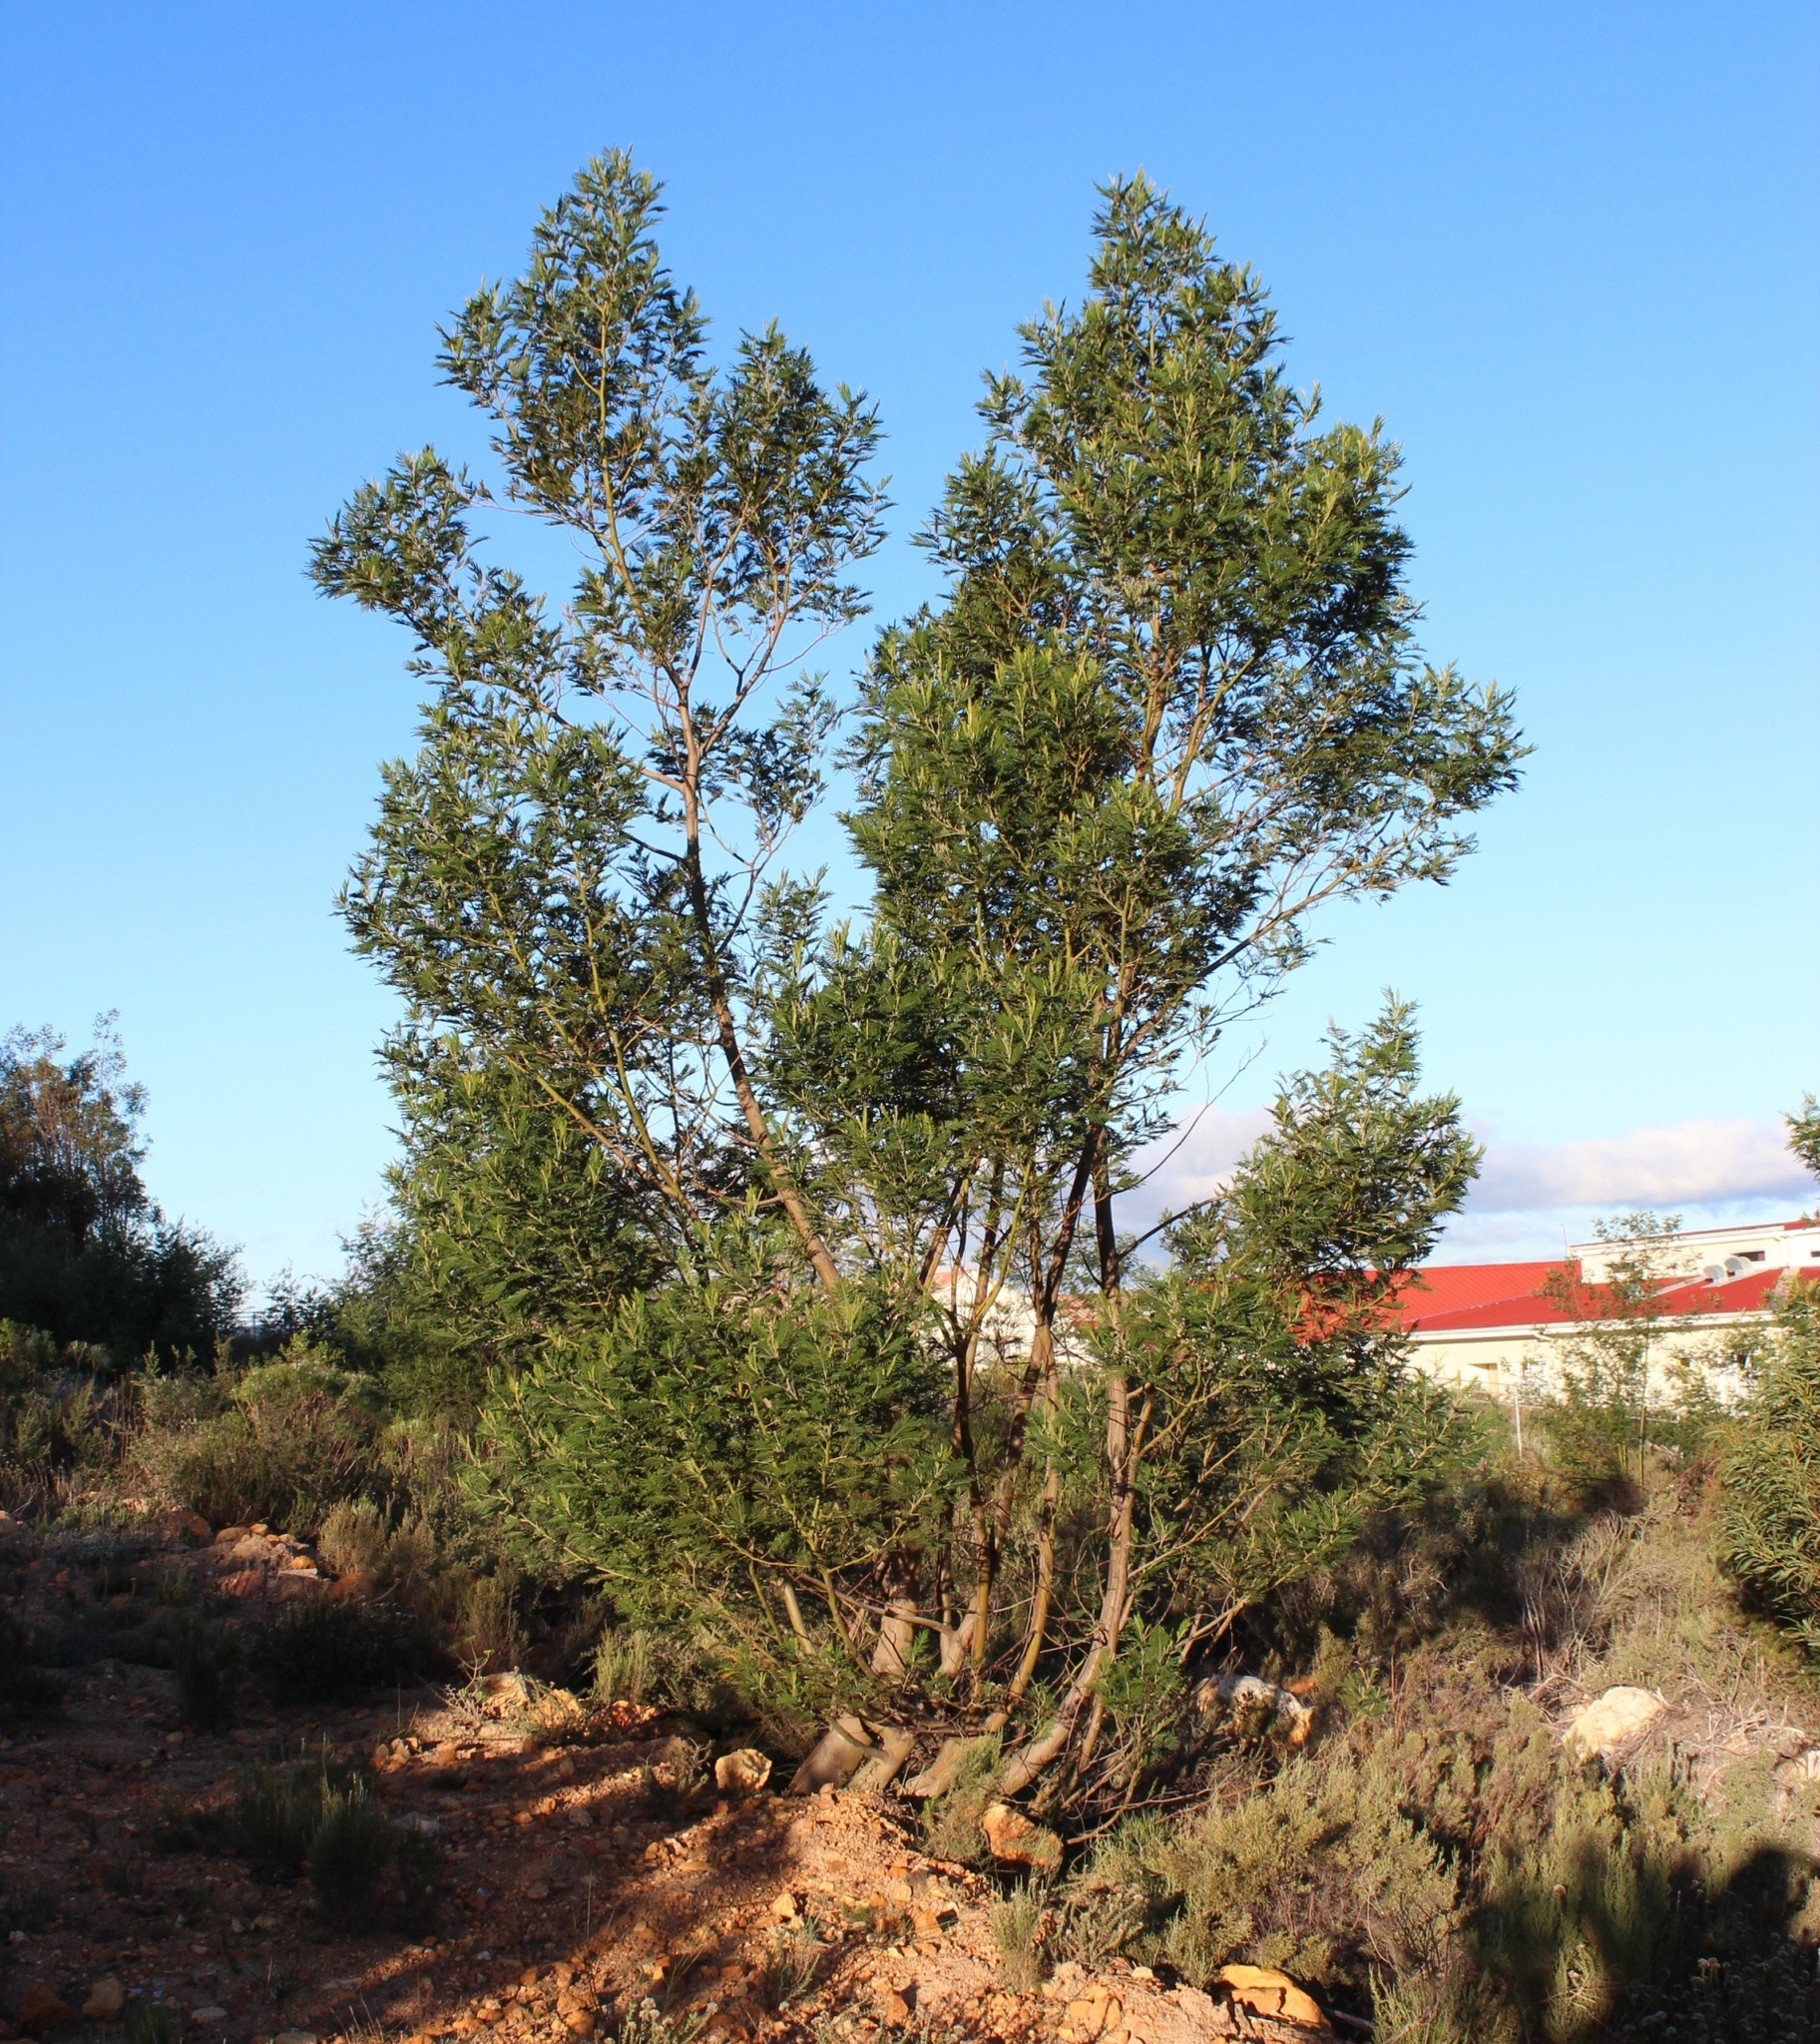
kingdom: Plantae
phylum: Tracheophyta
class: Magnoliopsida
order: Fabales
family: Fabaceae
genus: Acacia
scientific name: Acacia mearnsii
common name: Black wattle
